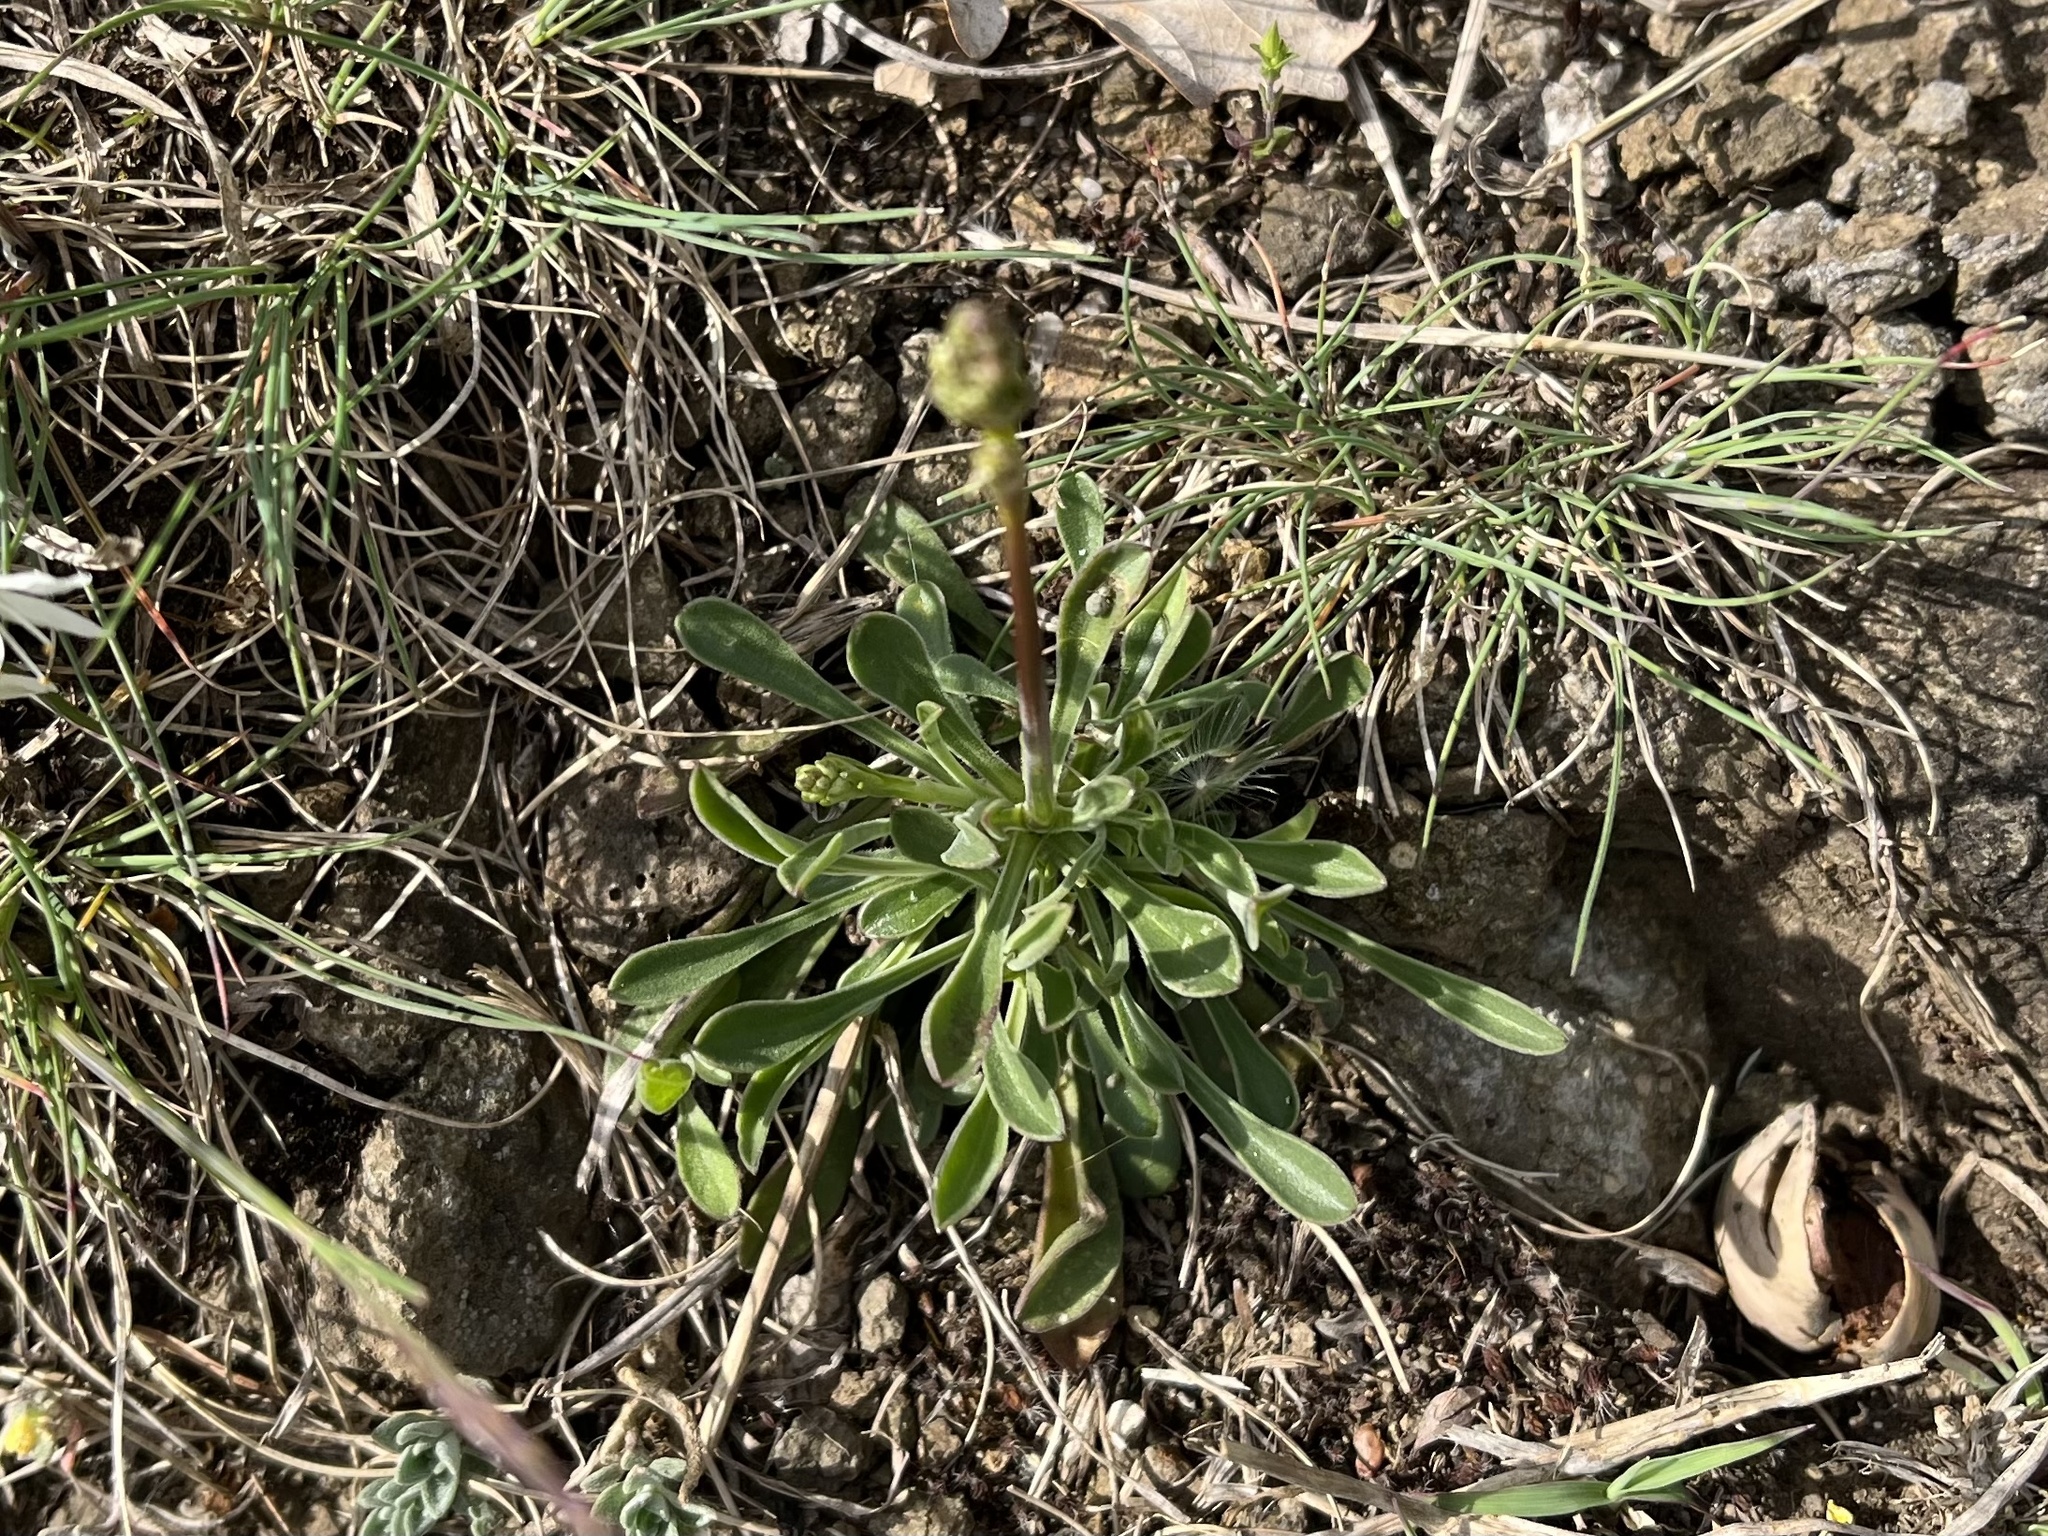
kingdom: Plantae
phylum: Tracheophyta
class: Magnoliopsida
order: Caryophyllales
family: Caryophyllaceae
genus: Silene
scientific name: Silene otites
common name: Spanish catchfly
